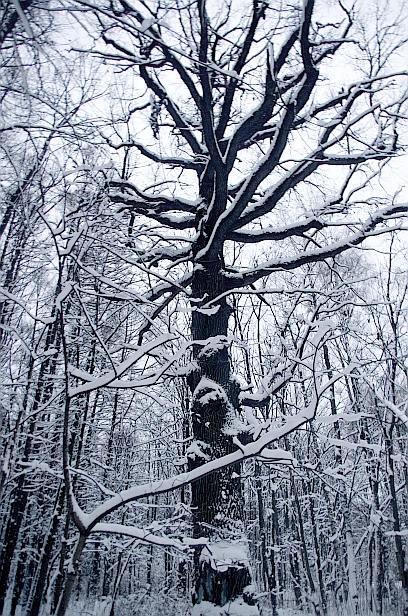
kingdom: Plantae
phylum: Tracheophyta
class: Magnoliopsida
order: Fagales
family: Fagaceae
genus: Quercus
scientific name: Quercus robur
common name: Pedunculate oak
